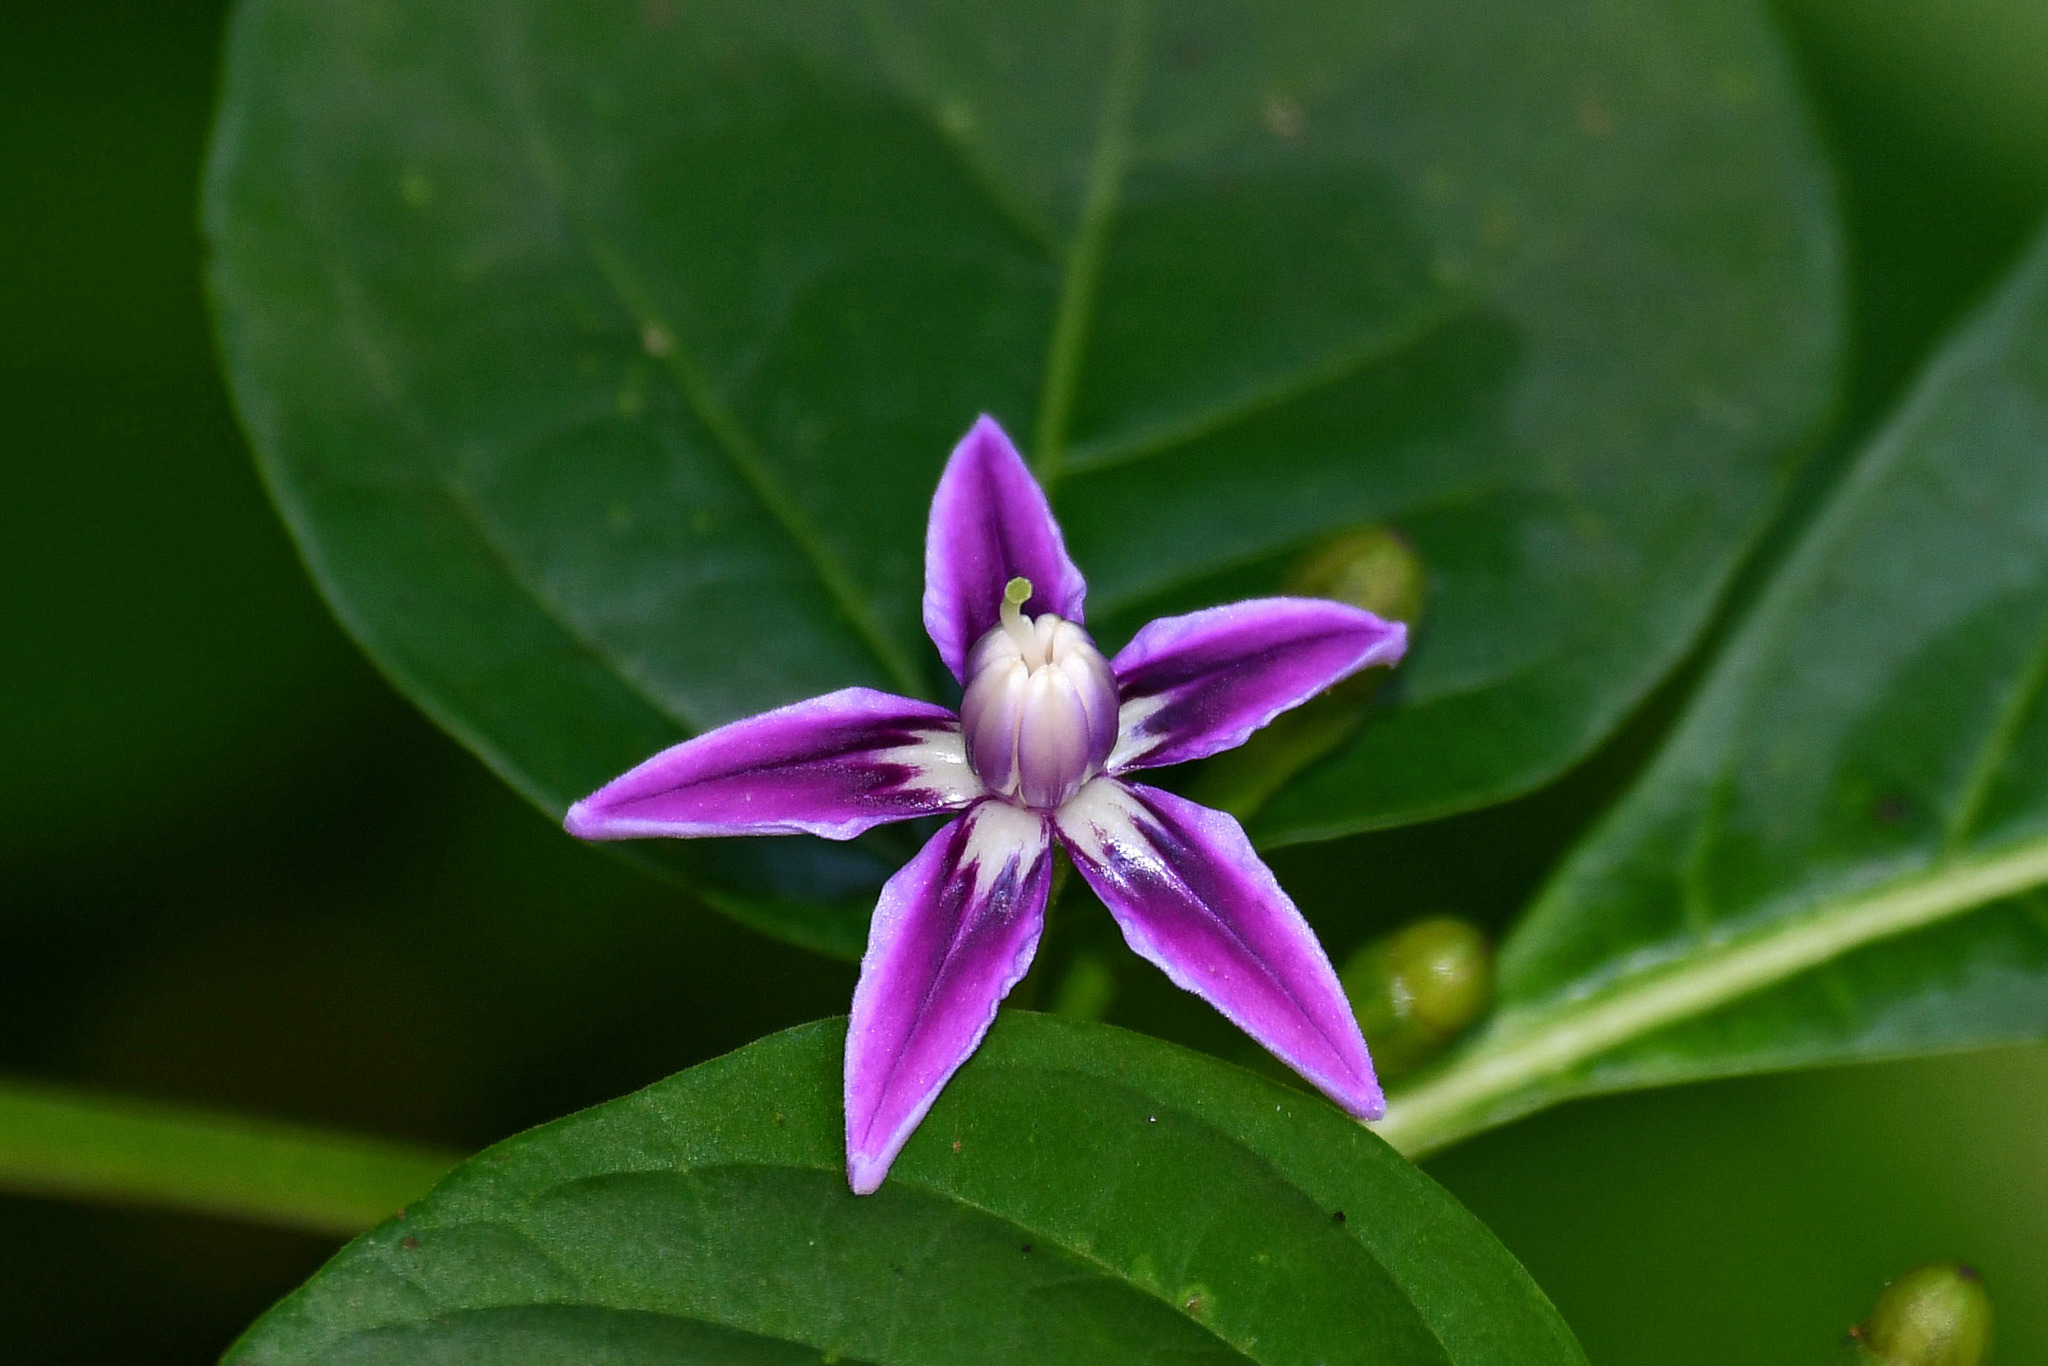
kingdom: Plantae
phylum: Tracheophyta
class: Magnoliopsida
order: Solanales
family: Solanaceae
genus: Lycianthes
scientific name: Lycianthes heteroclita
